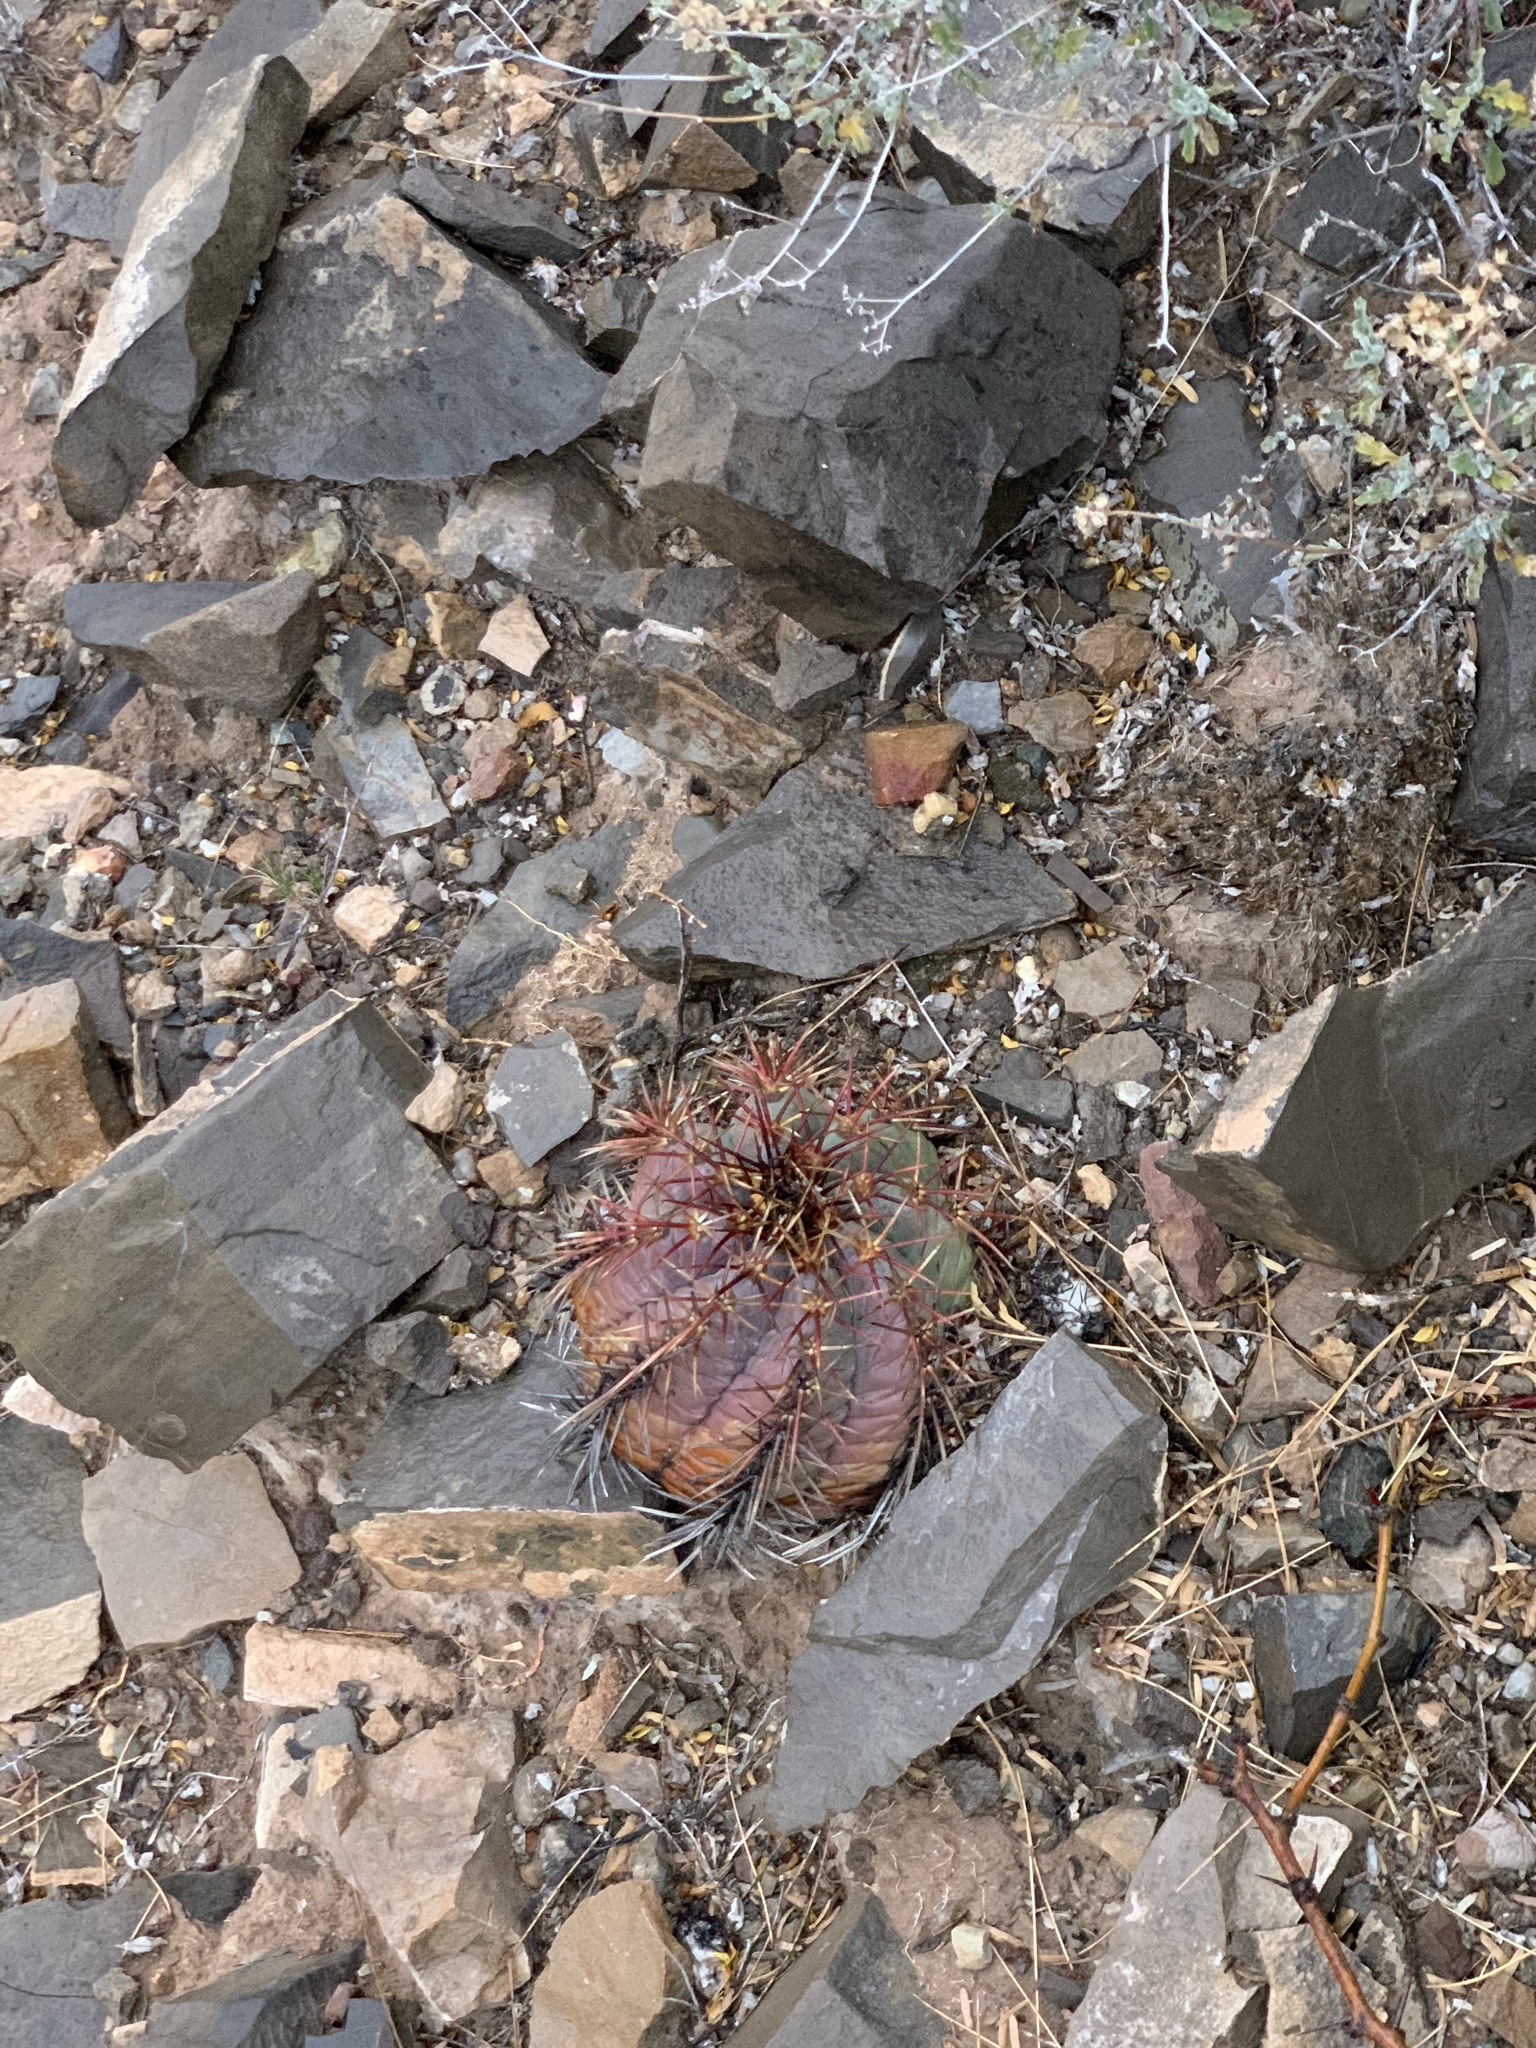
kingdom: Plantae
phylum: Tracheophyta
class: Magnoliopsida
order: Caryophyllales
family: Cactaceae
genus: Echinocactus
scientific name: Echinocactus horizonthalonius
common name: Devilshead
